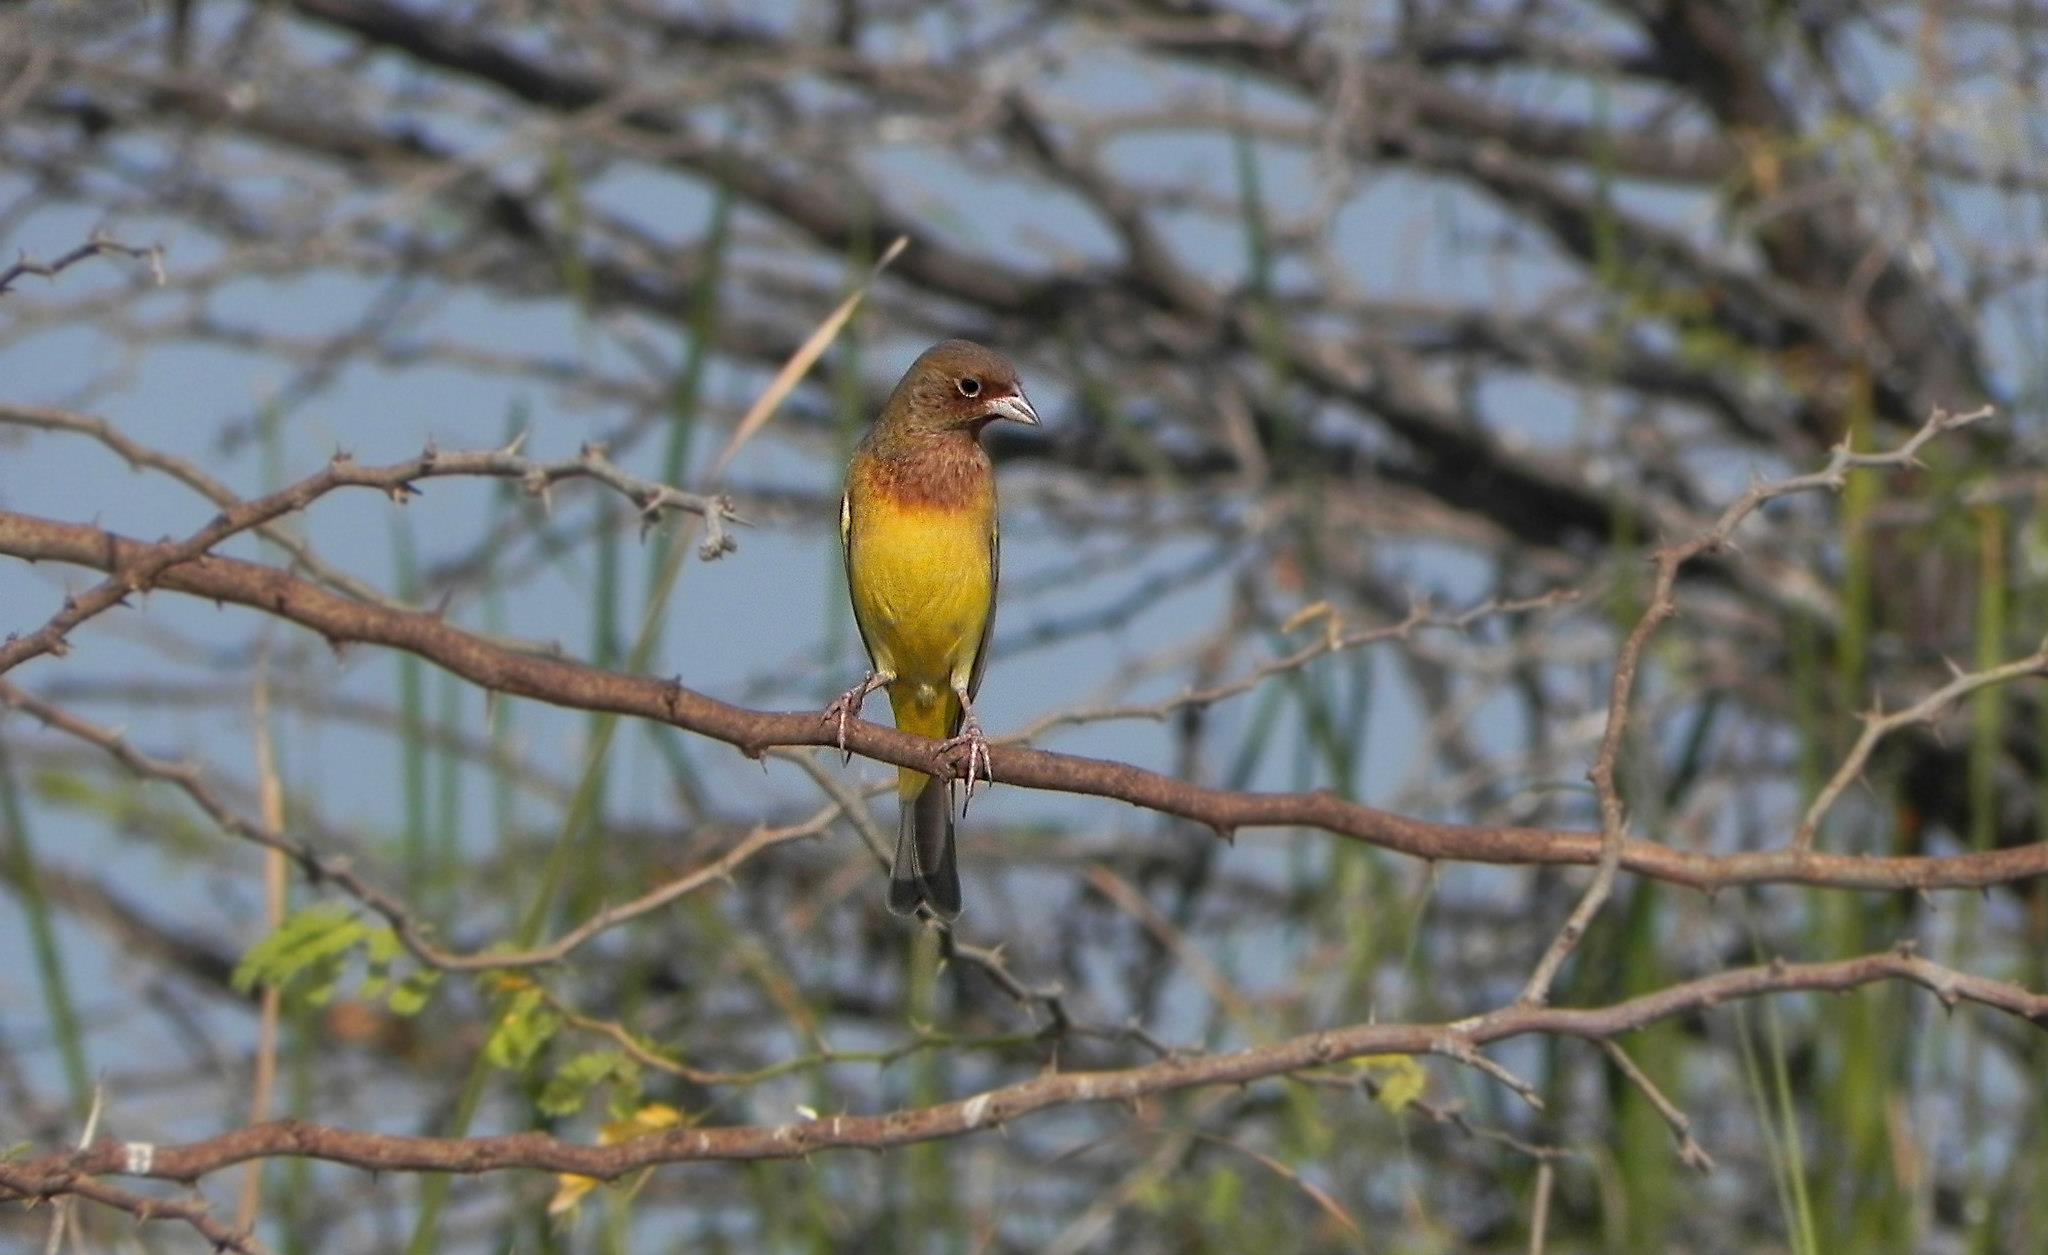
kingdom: Animalia
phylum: Chordata
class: Aves
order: Passeriformes
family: Emberizidae
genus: Emberiza
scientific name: Emberiza bruniceps
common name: Red-headed bunting
